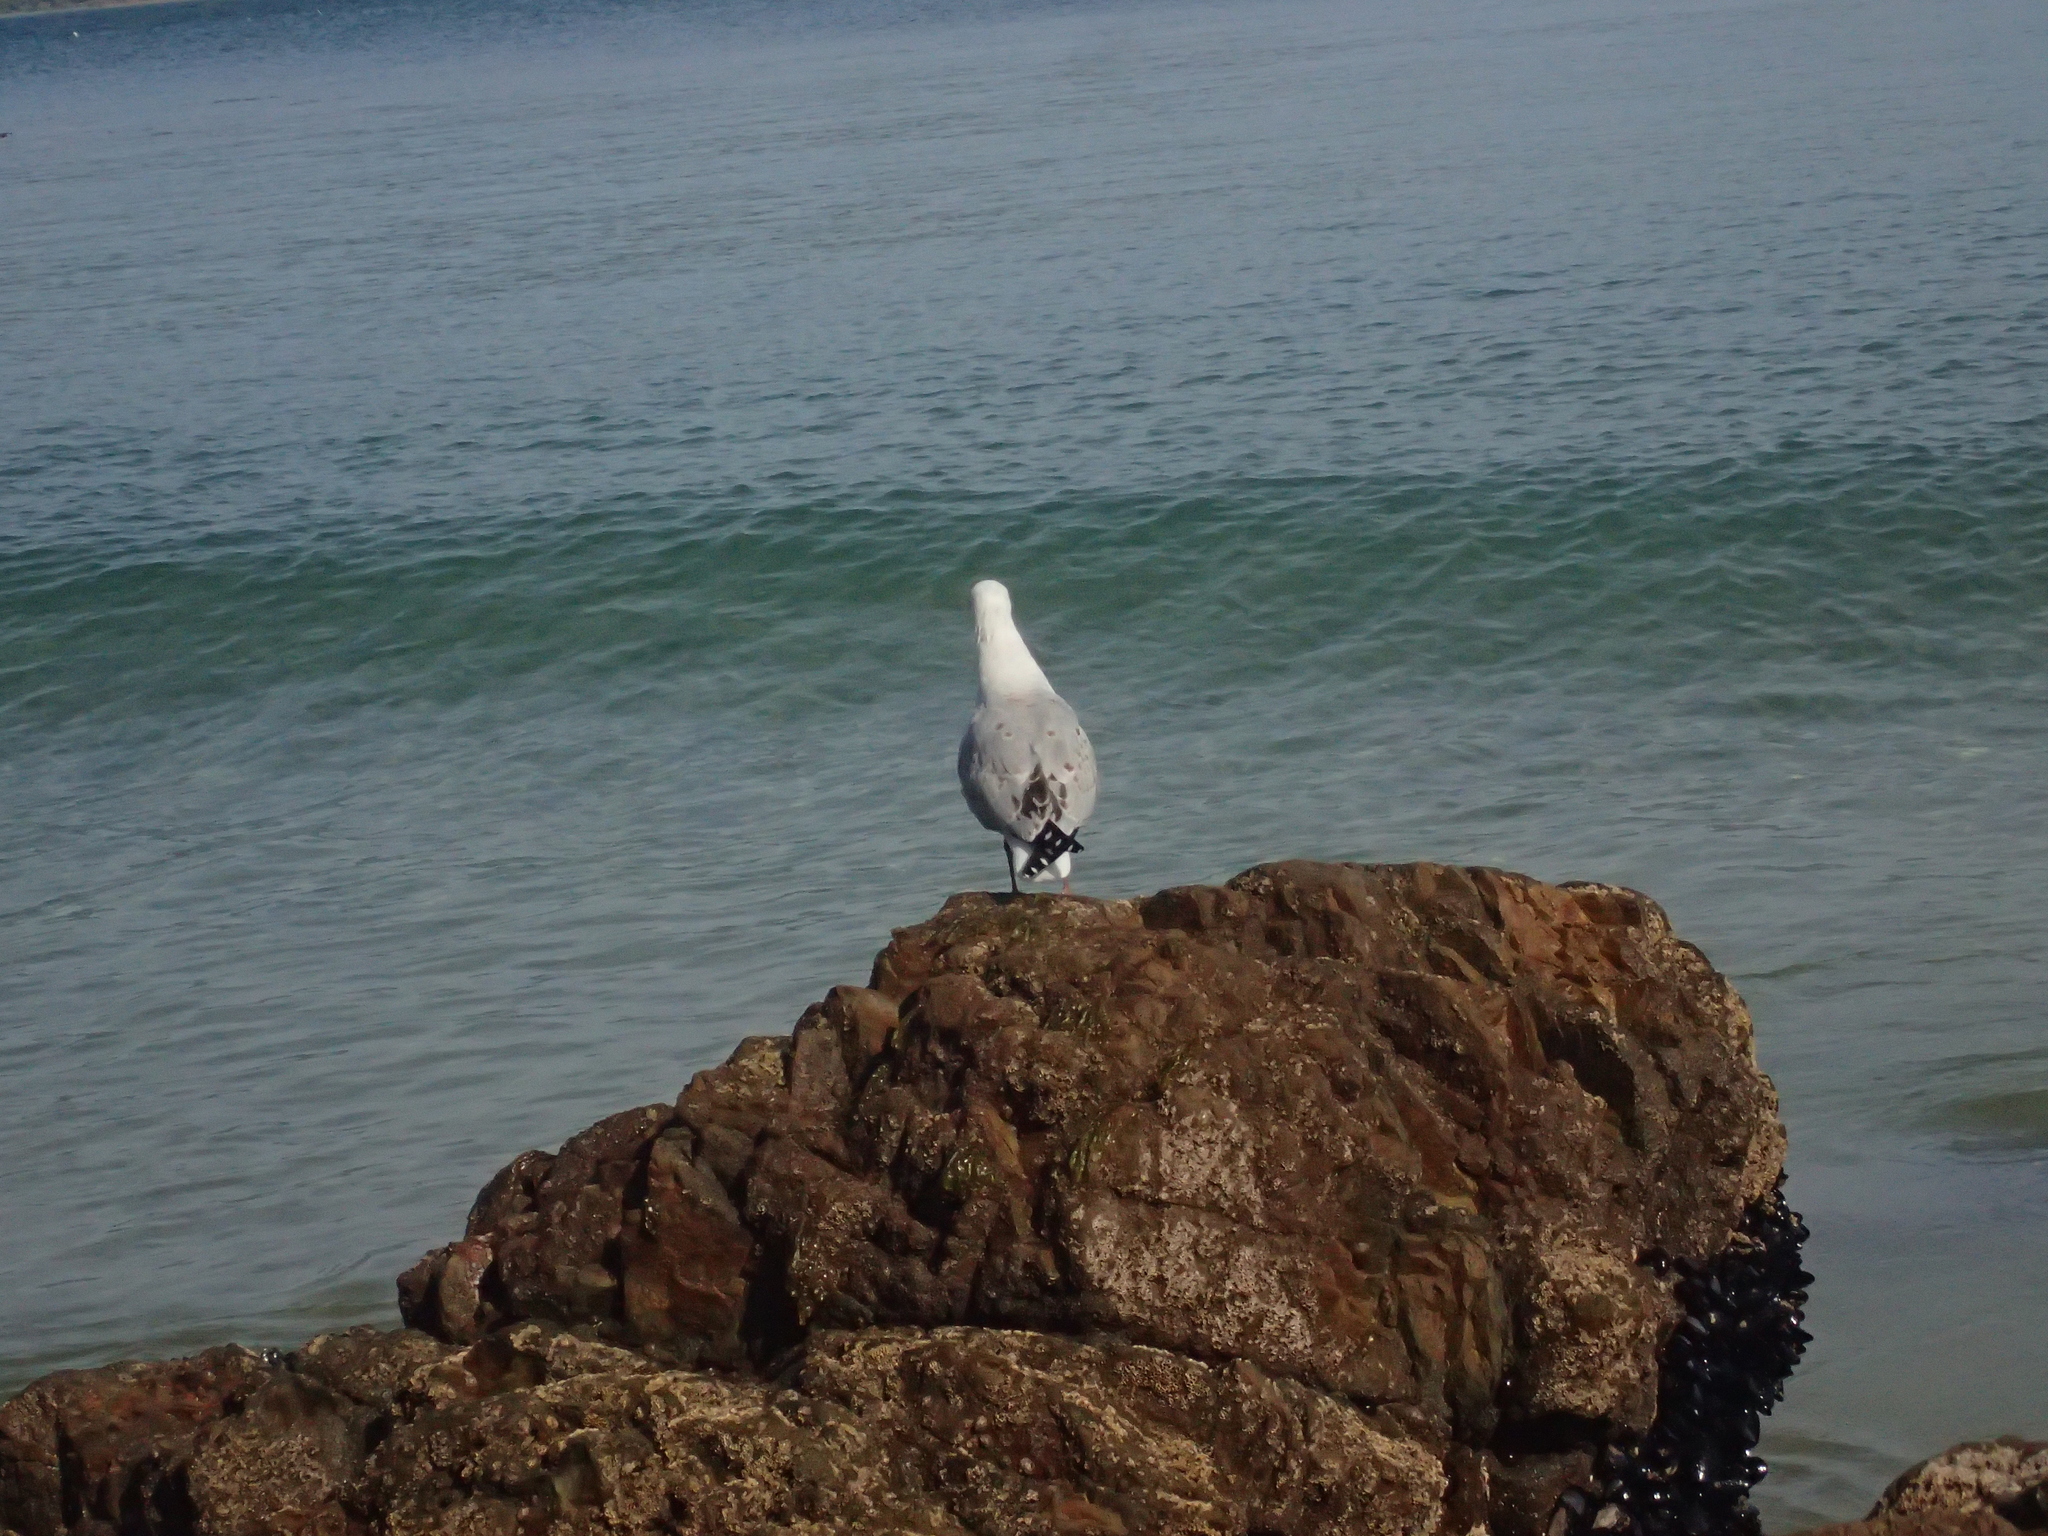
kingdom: Animalia
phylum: Chordata
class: Aves
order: Charadriiformes
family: Laridae
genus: Chroicocephalus
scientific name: Chroicocephalus novaehollandiae
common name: Silver gull
